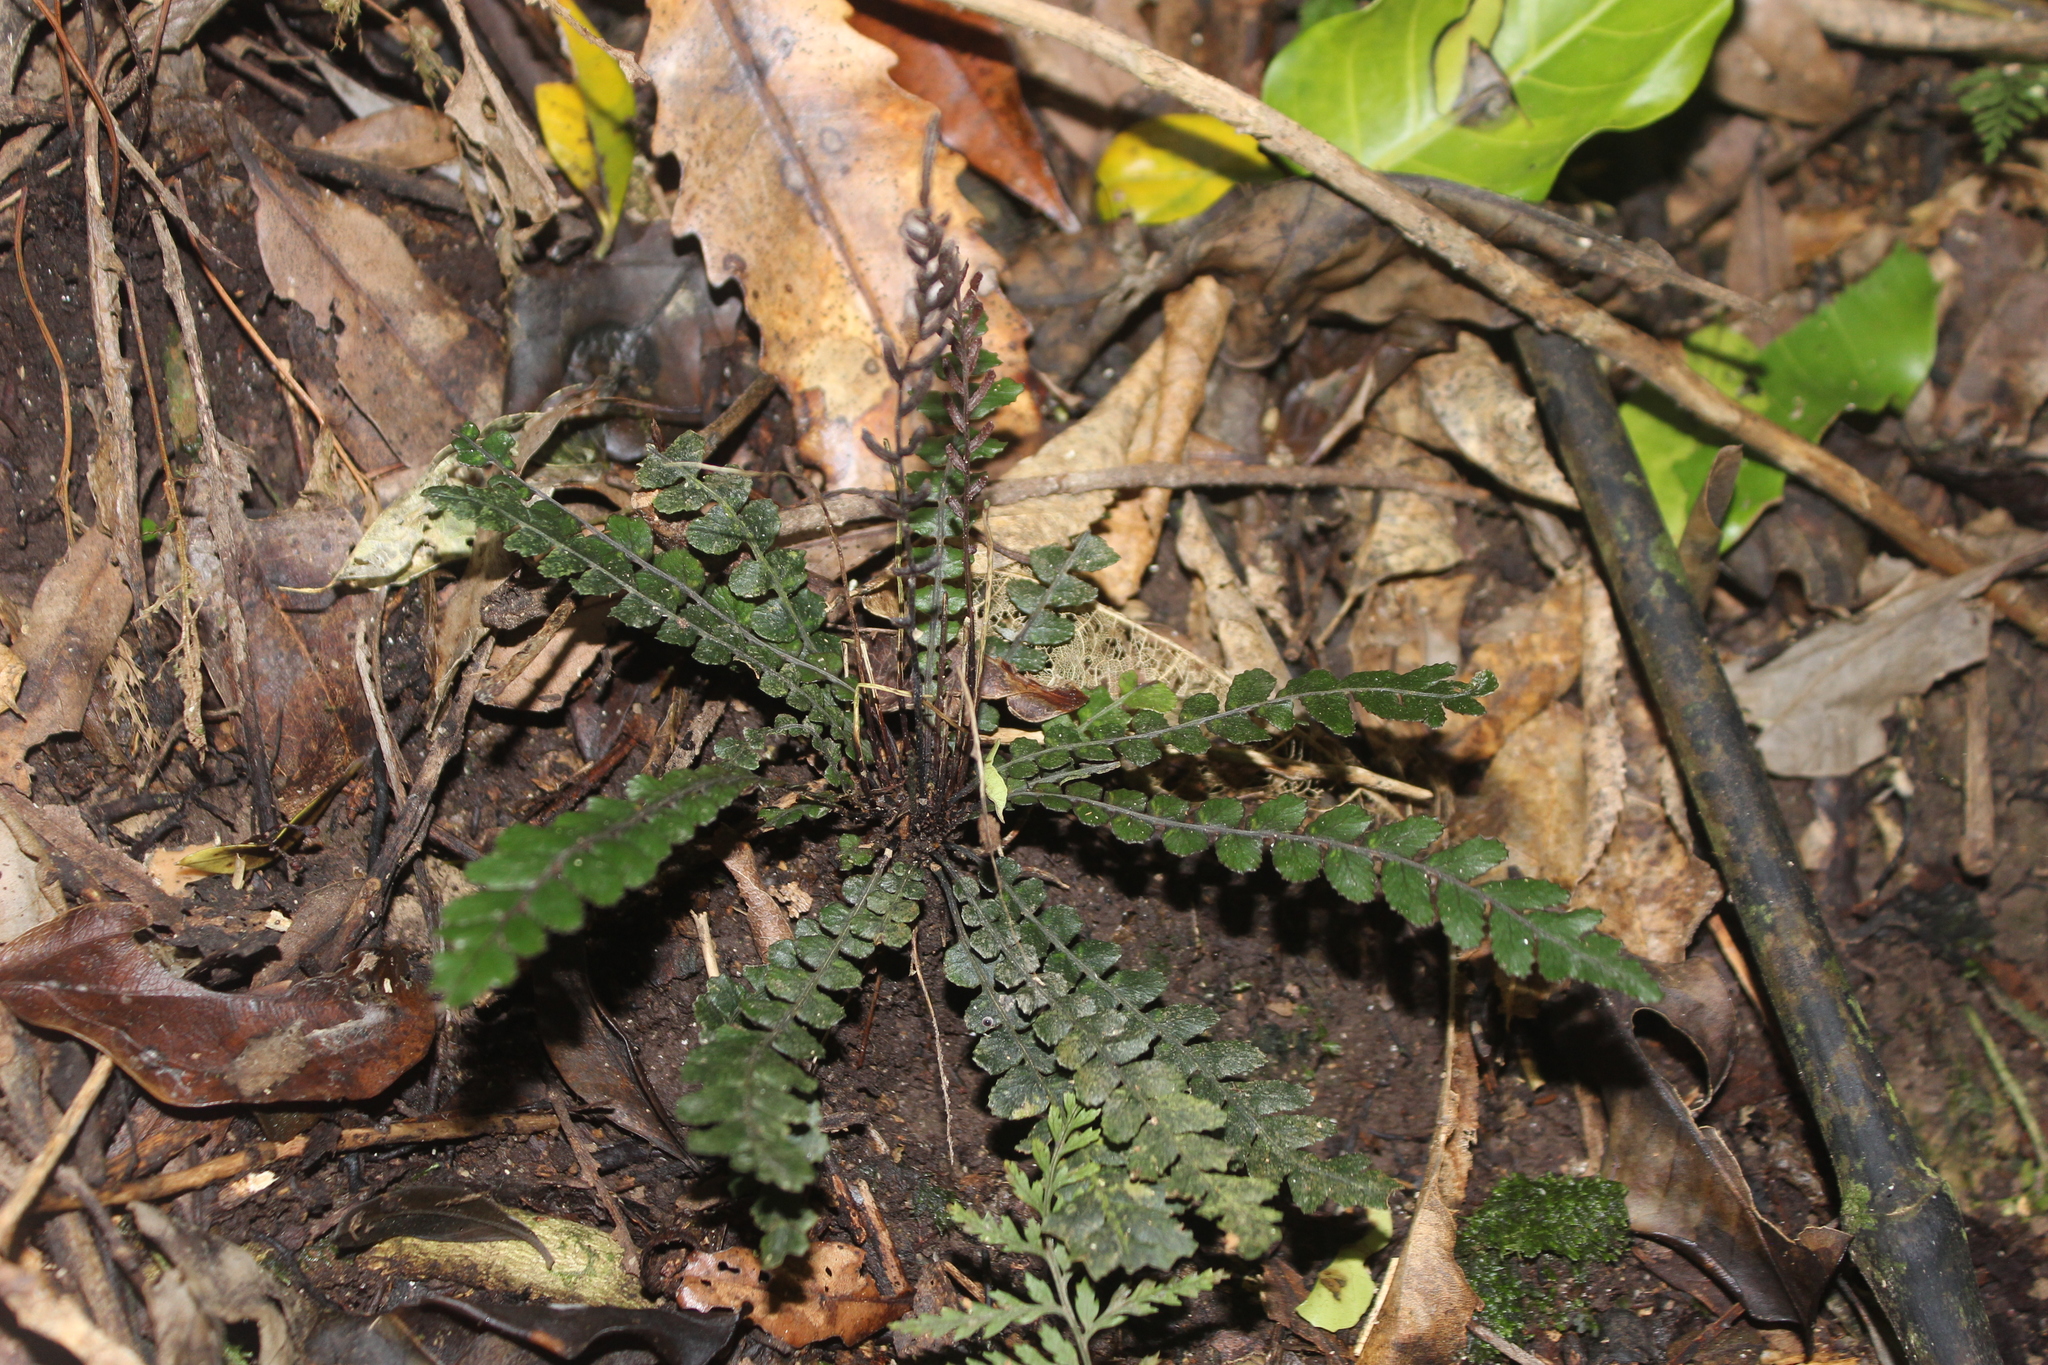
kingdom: Plantae
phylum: Tracheophyta
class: Polypodiopsida
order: Polypodiales
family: Blechnaceae
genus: Austroblechnum
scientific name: Austroblechnum membranaceum
